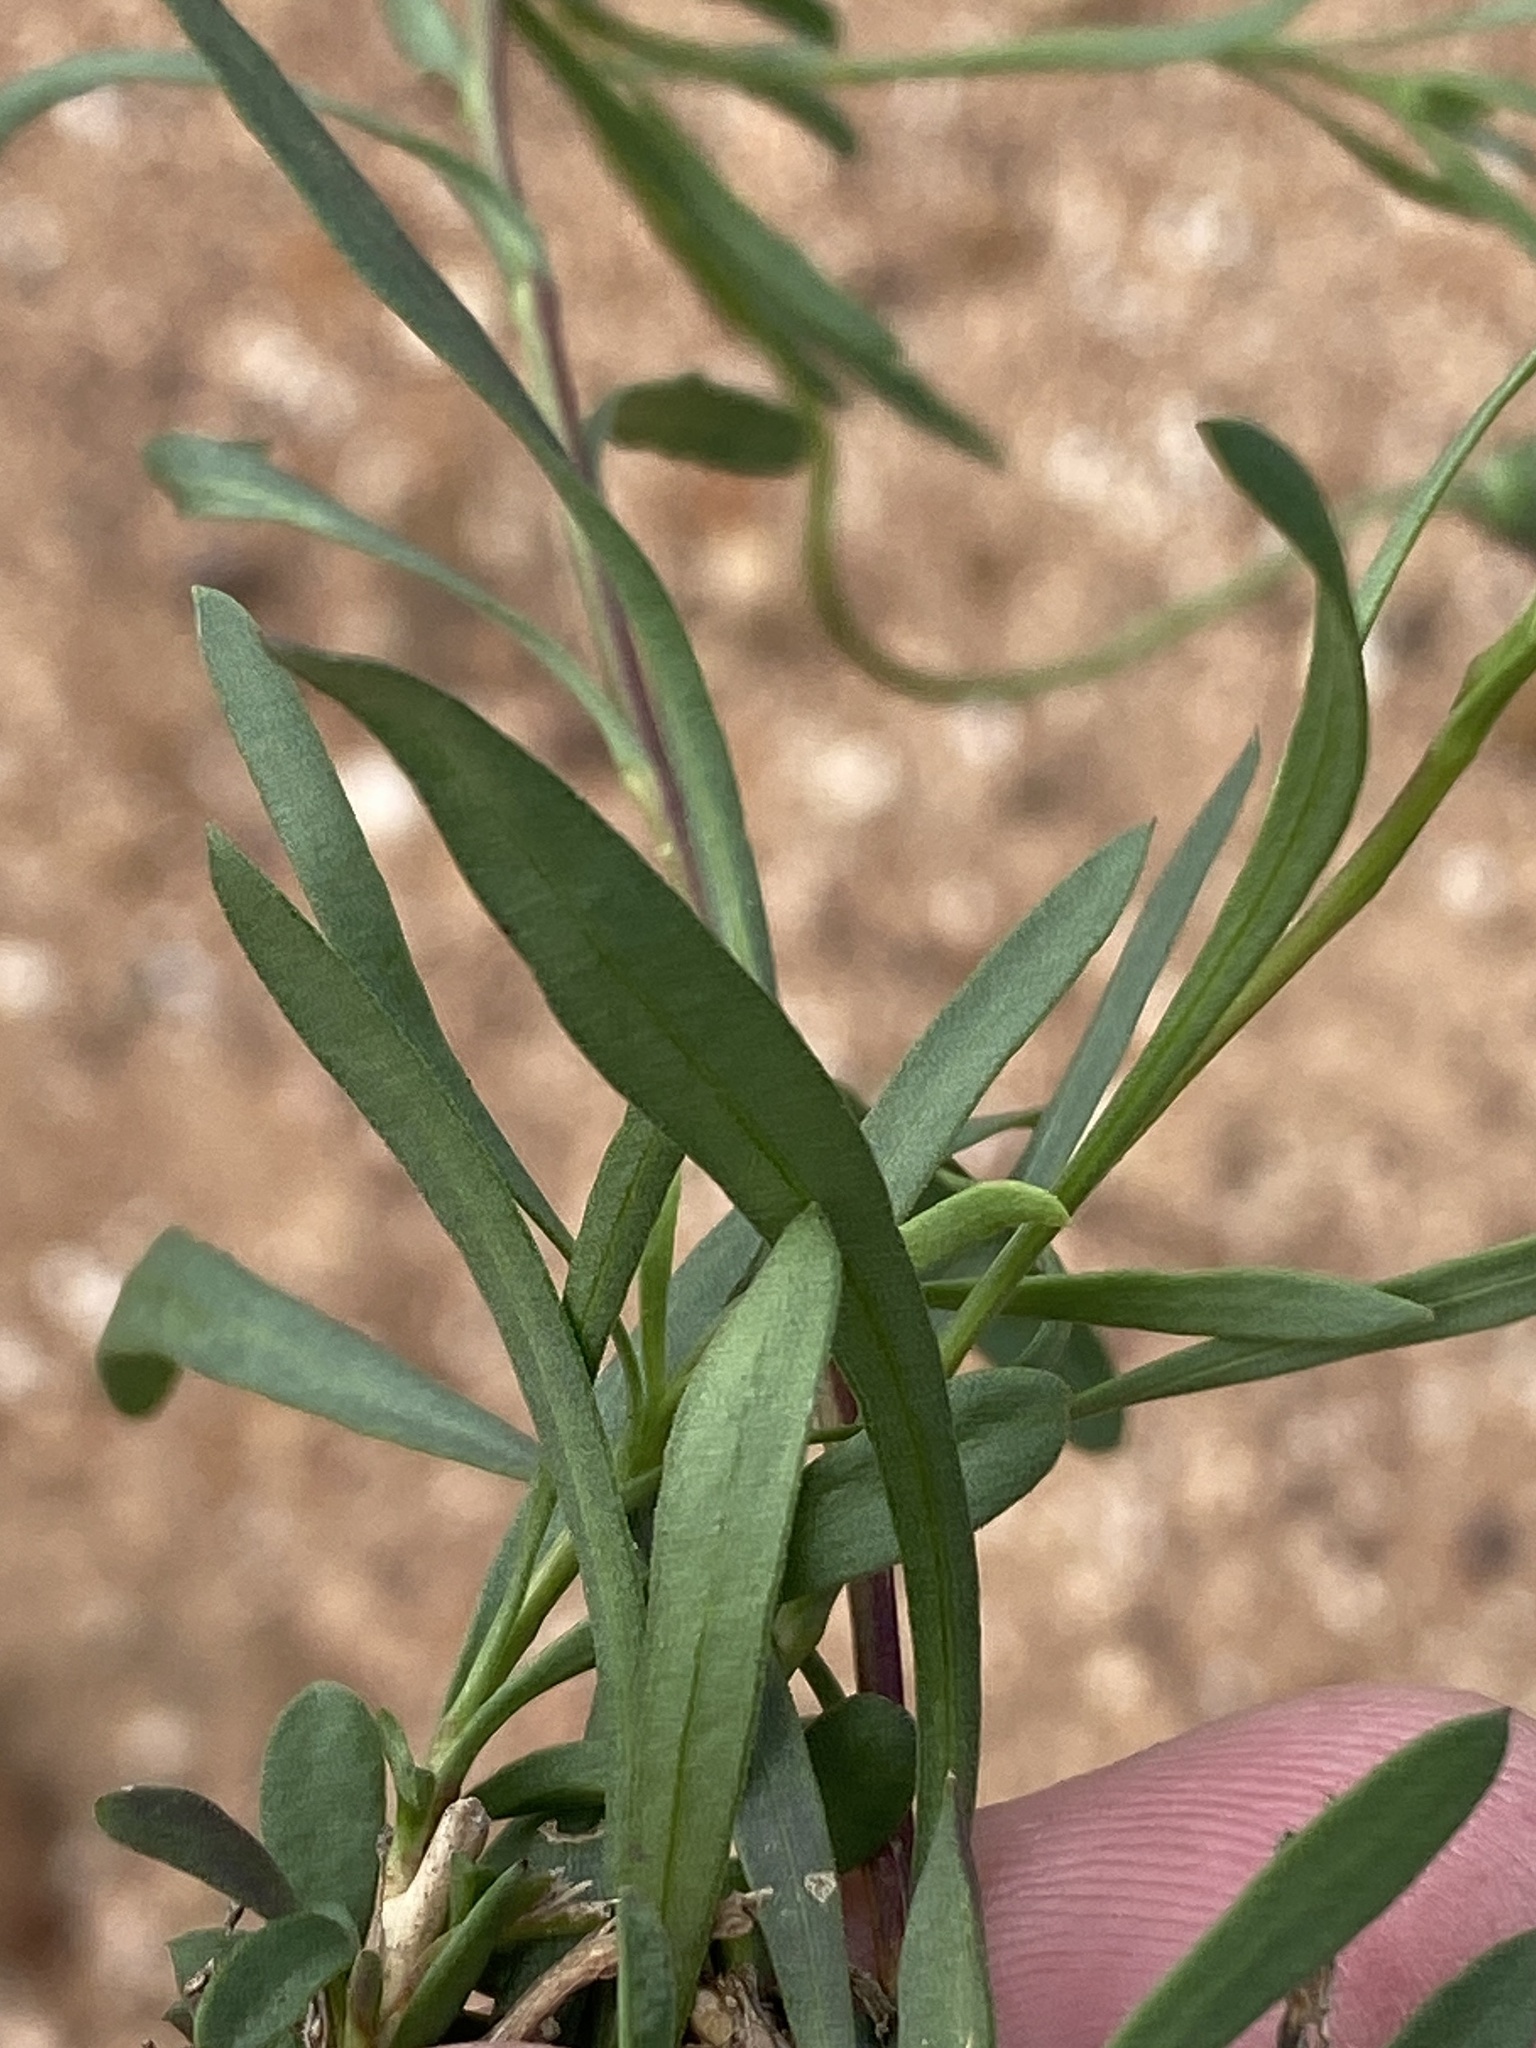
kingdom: Plantae
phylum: Tracheophyta
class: Magnoliopsida
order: Asterales
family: Asteraceae
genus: Dimorphotheca
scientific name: Dimorphotheca ecklonis
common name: Vanstaden's river daisy
